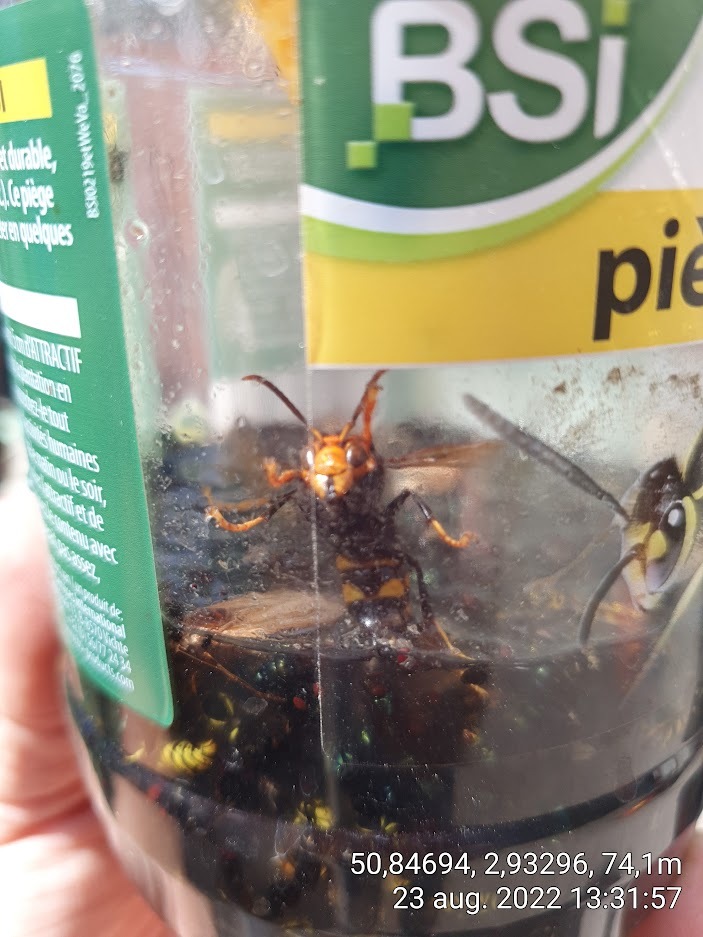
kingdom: Animalia
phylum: Arthropoda
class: Insecta
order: Hymenoptera
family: Vespidae
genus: Vespa
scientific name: Vespa velutina
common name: Asian hornet
